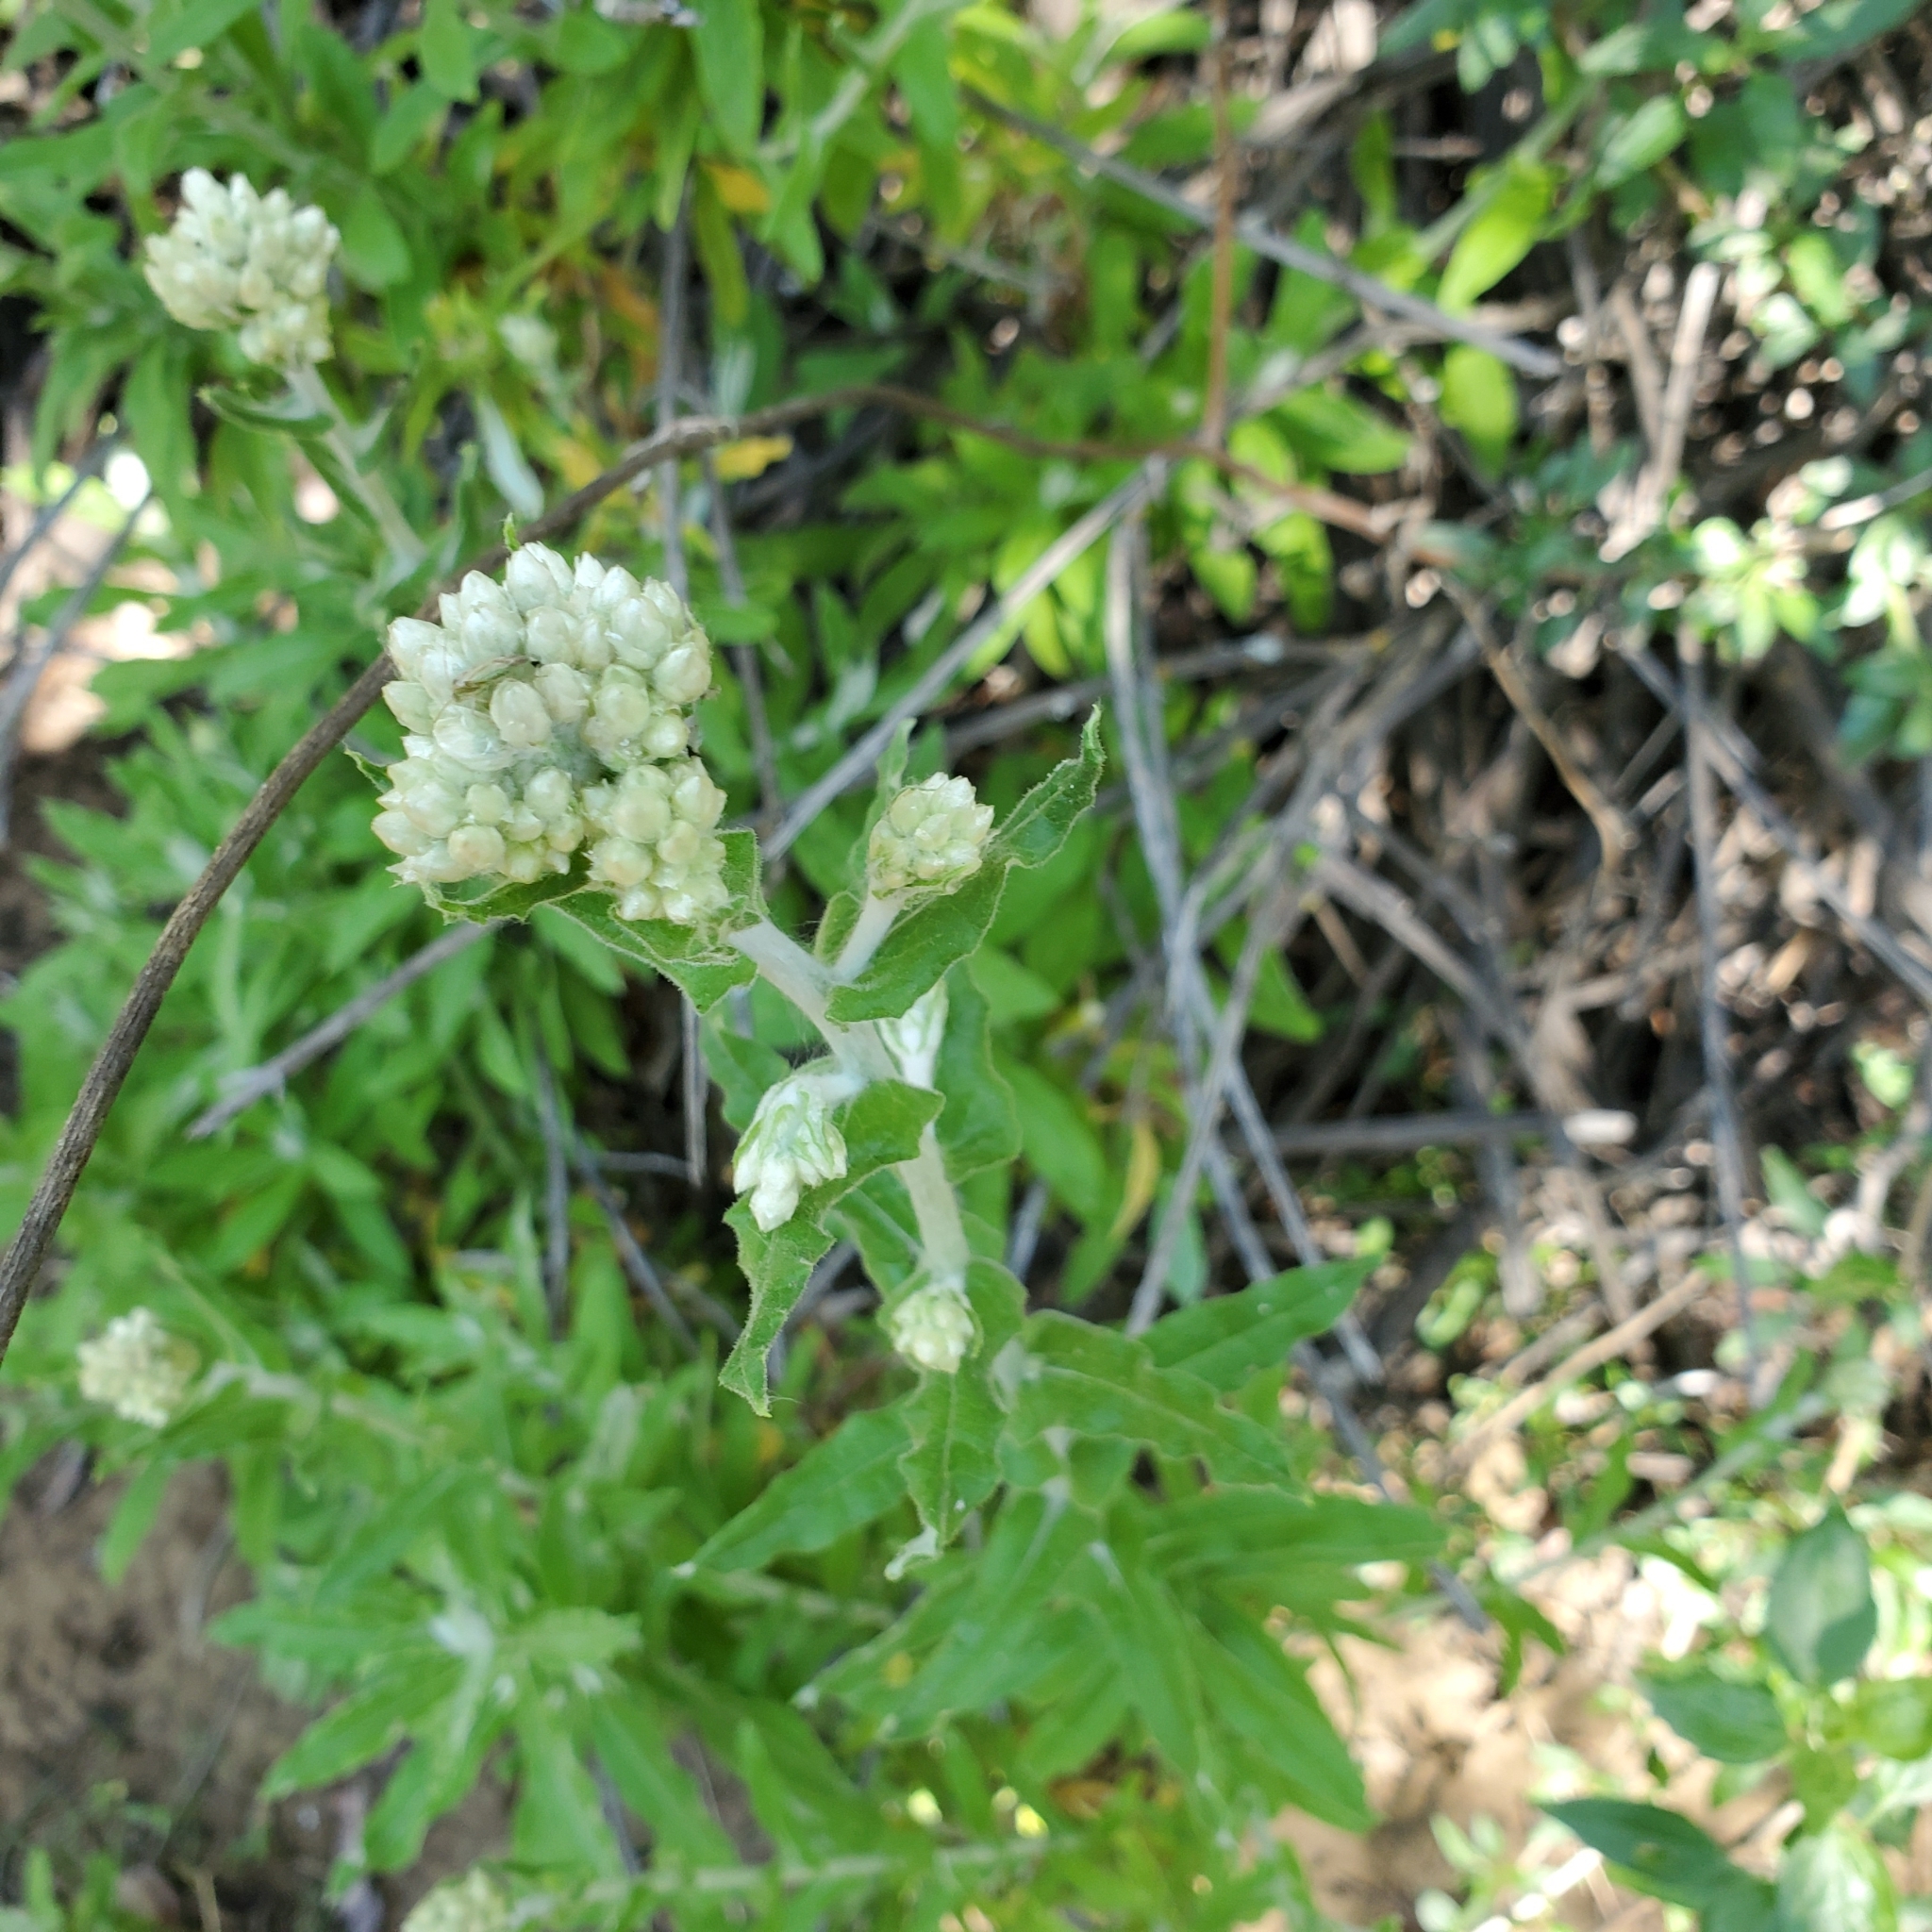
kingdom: Plantae
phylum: Tracheophyta
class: Magnoliopsida
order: Asterales
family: Asteraceae
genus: Pseudognaphalium
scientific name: Pseudognaphalium biolettii
